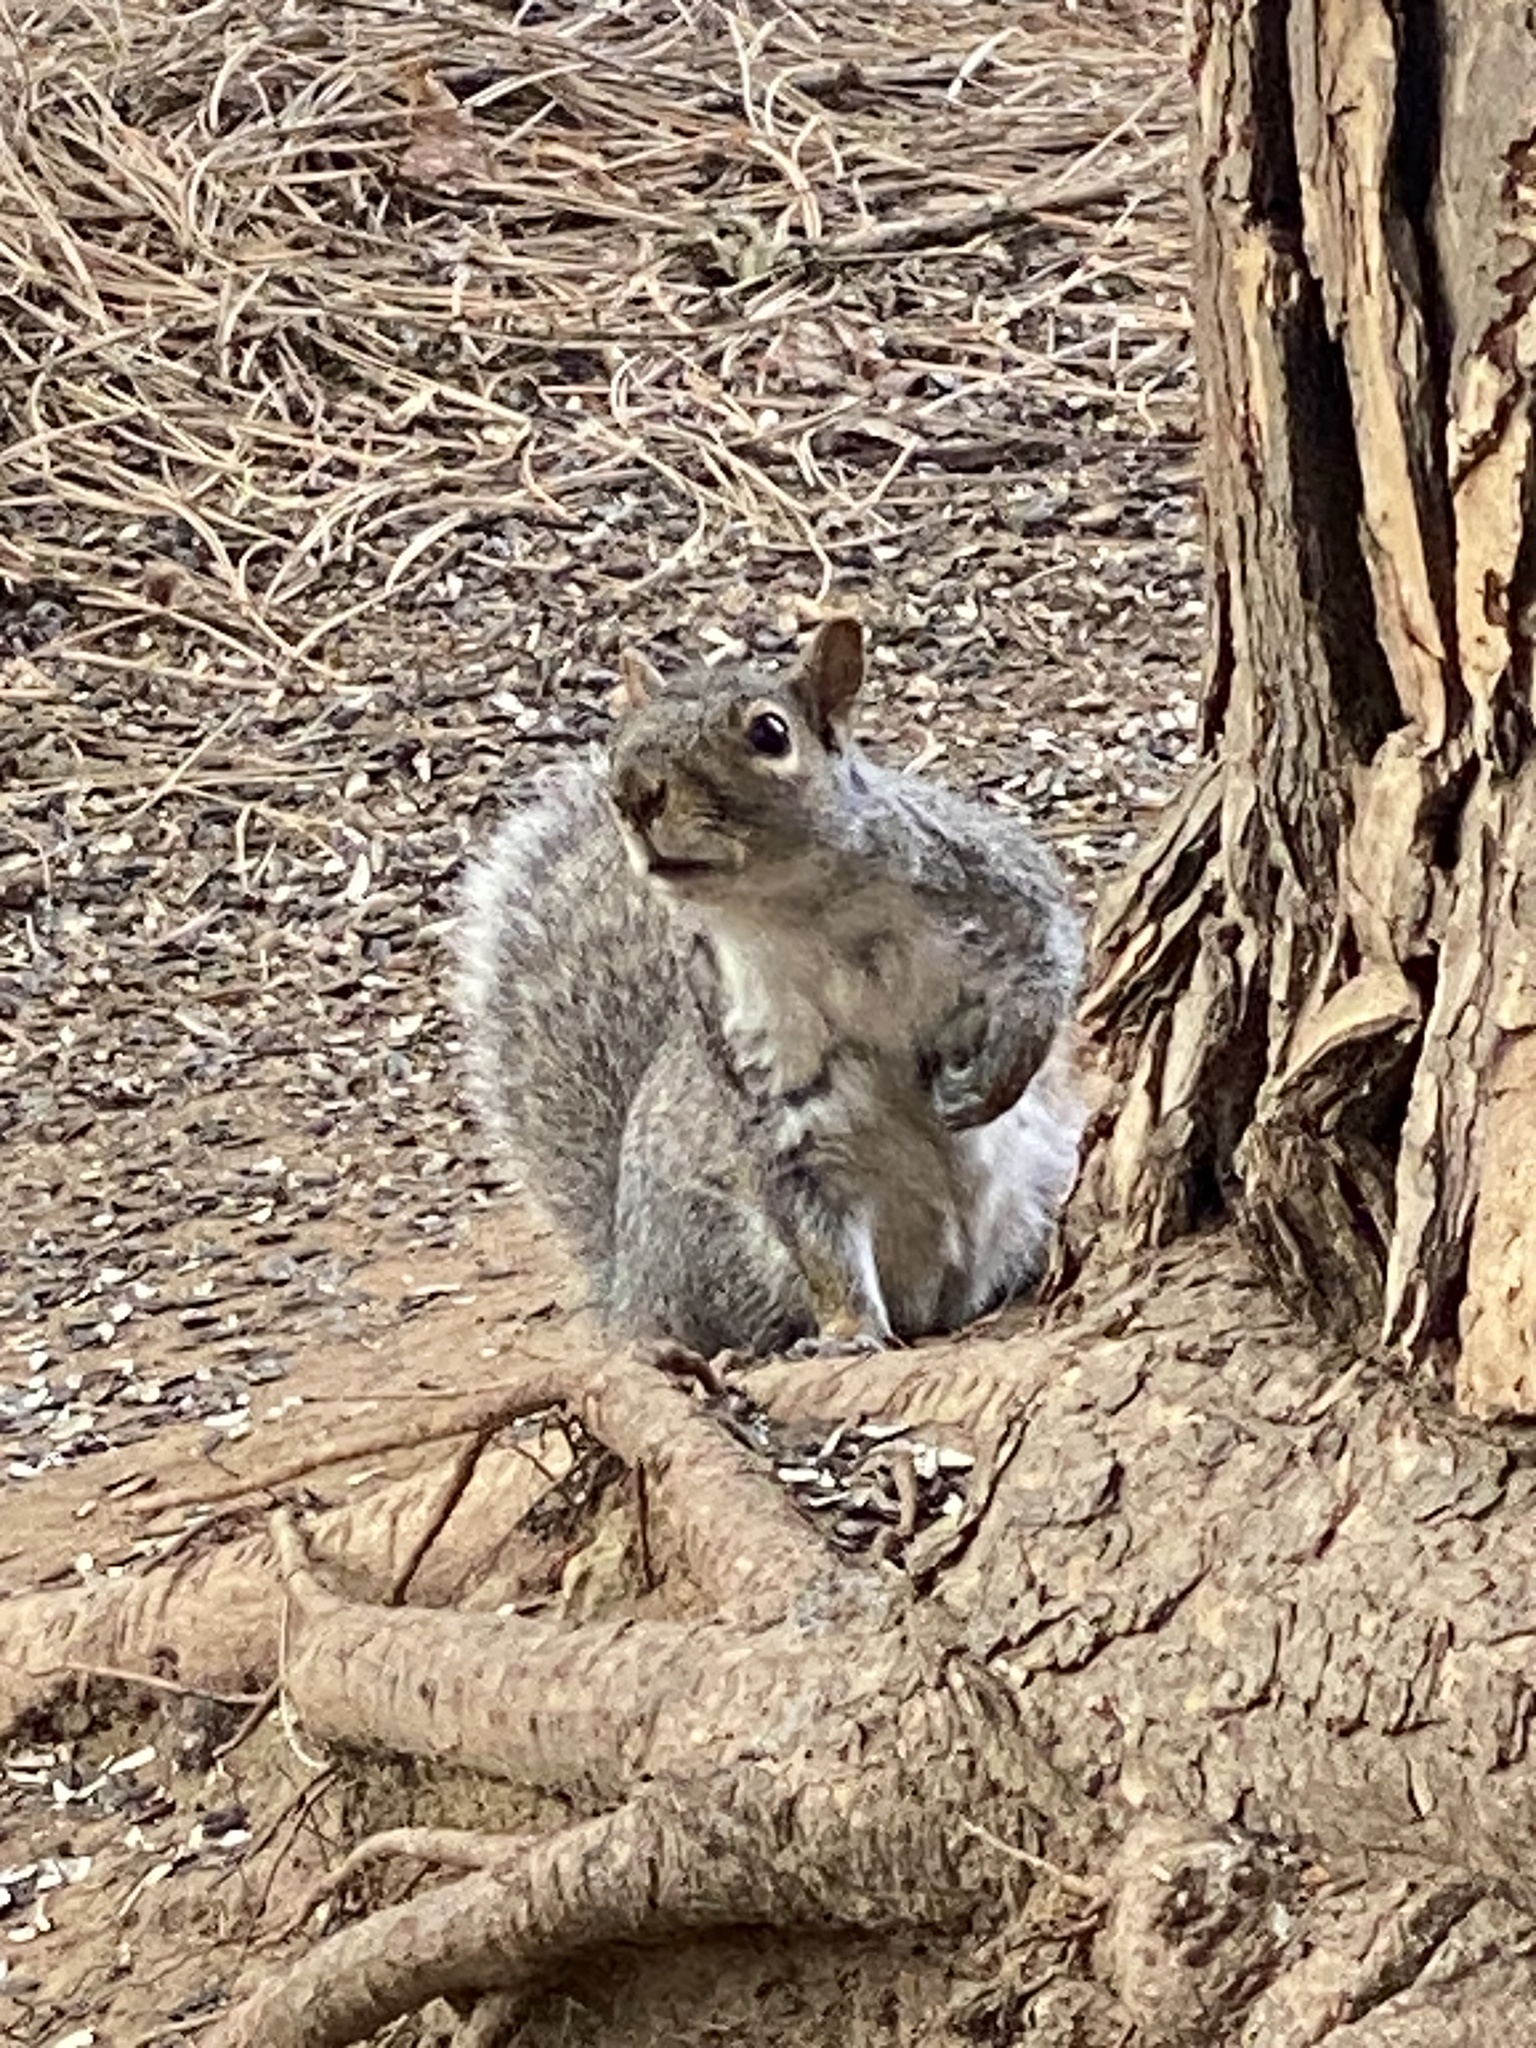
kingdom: Animalia
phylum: Chordata
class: Mammalia
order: Rodentia
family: Sciuridae
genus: Sciurus
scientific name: Sciurus carolinensis
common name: Eastern gray squirrel
